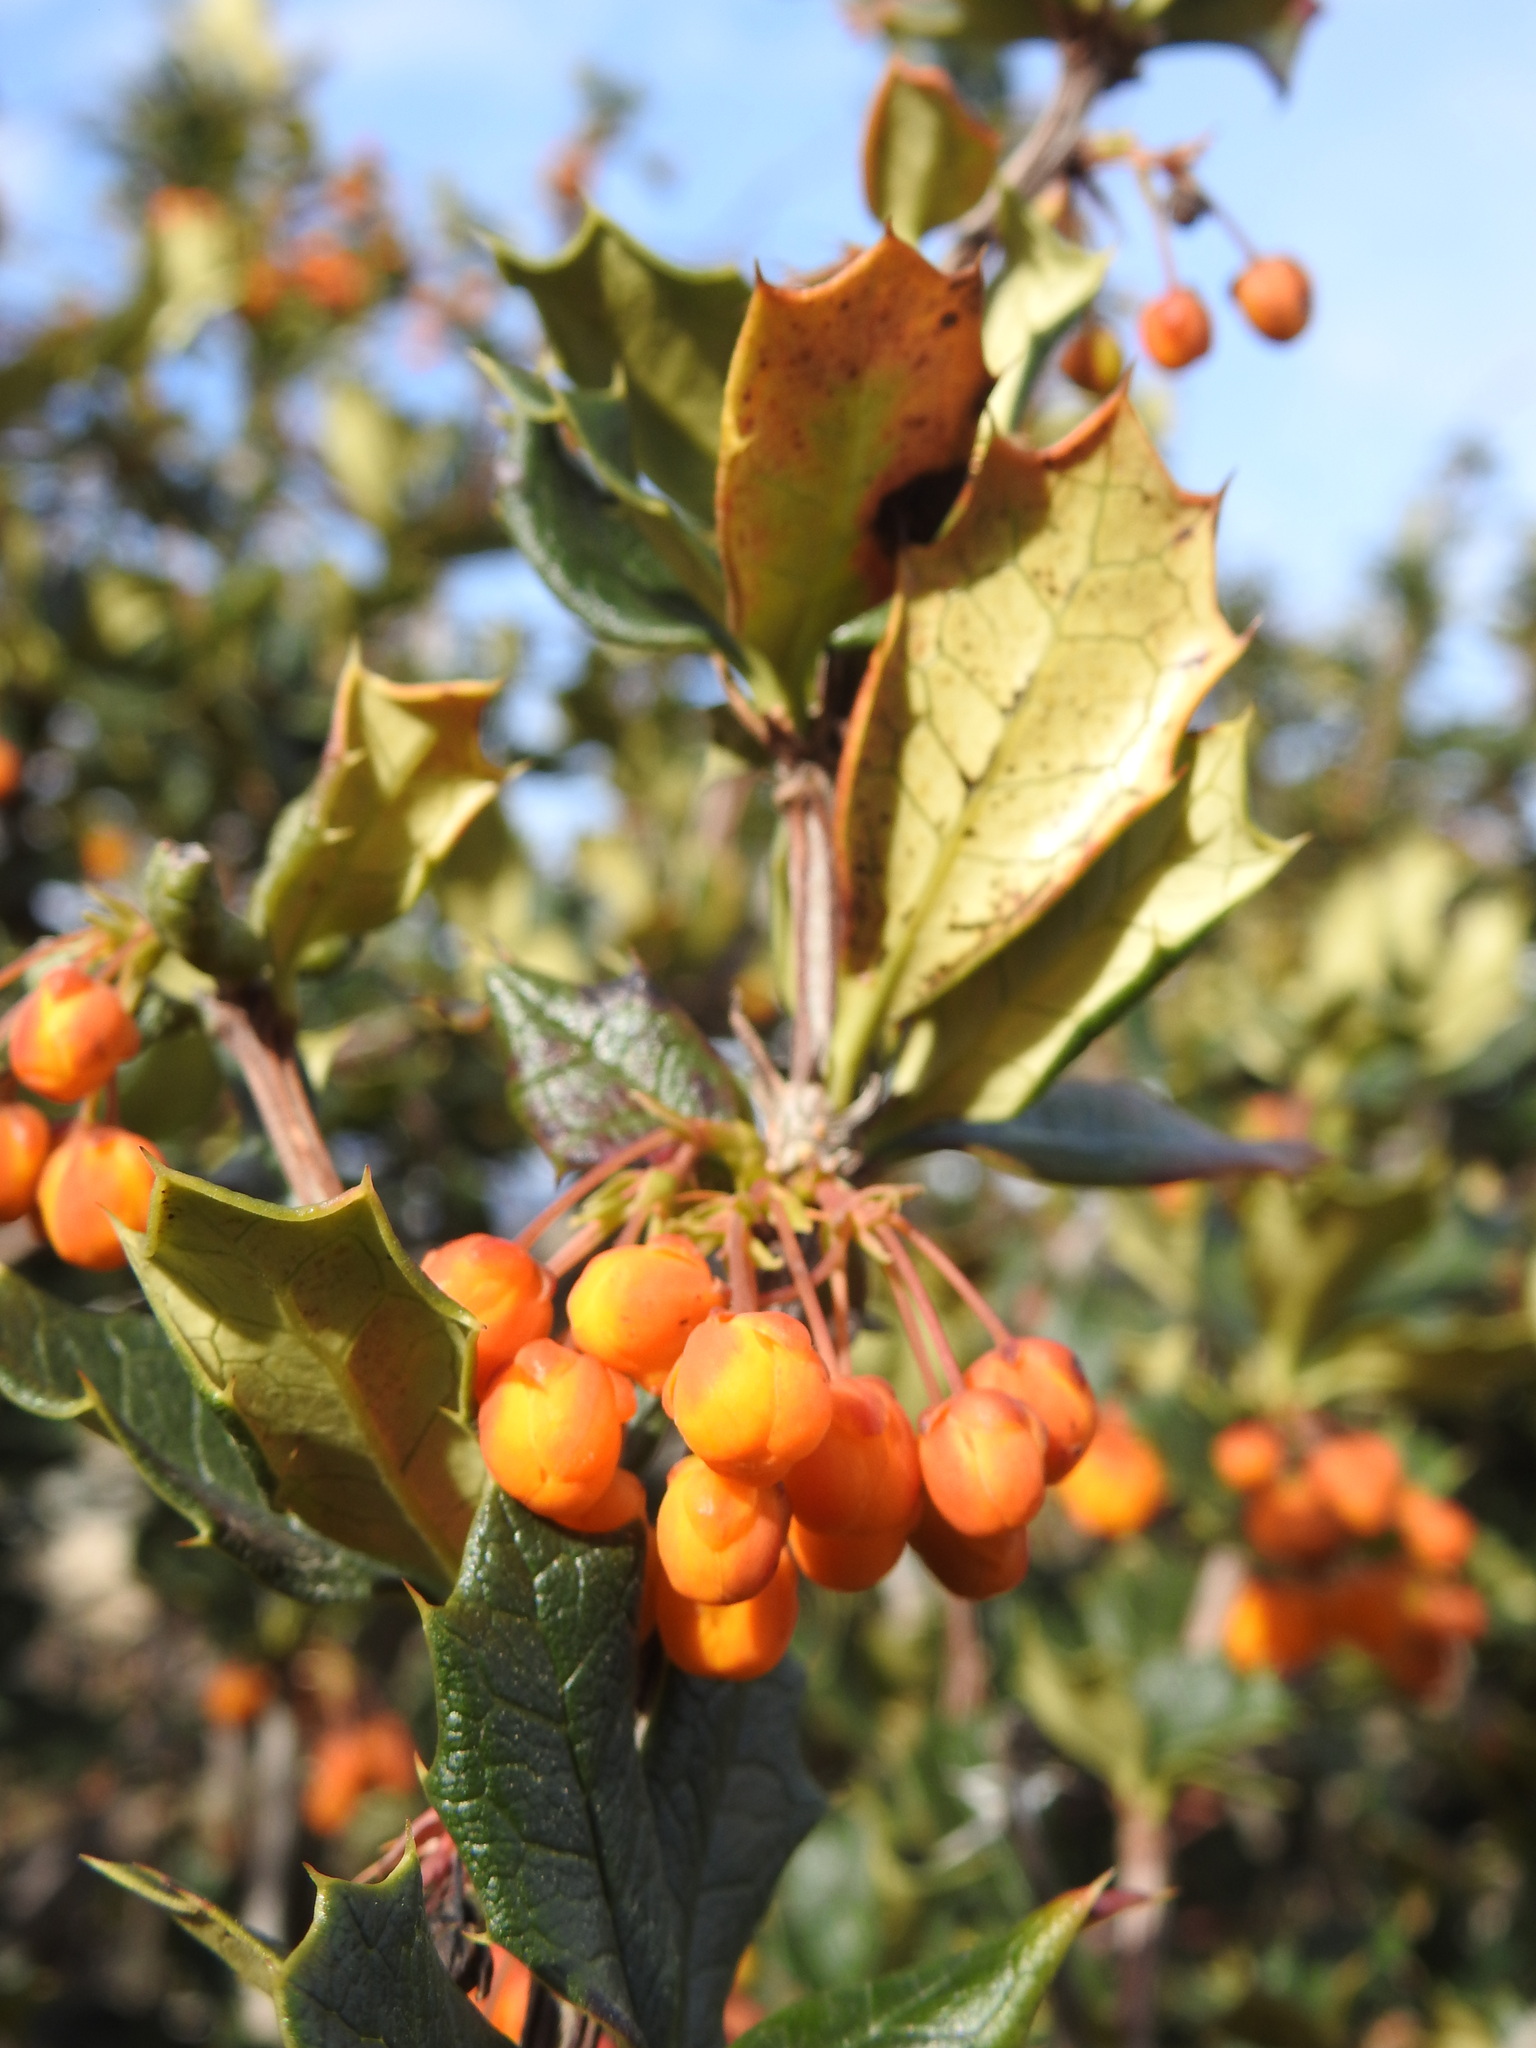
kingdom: Plantae
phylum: Tracheophyta
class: Magnoliopsida
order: Ranunculales
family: Berberidaceae
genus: Berberis
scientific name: Berberis ilicifolia
